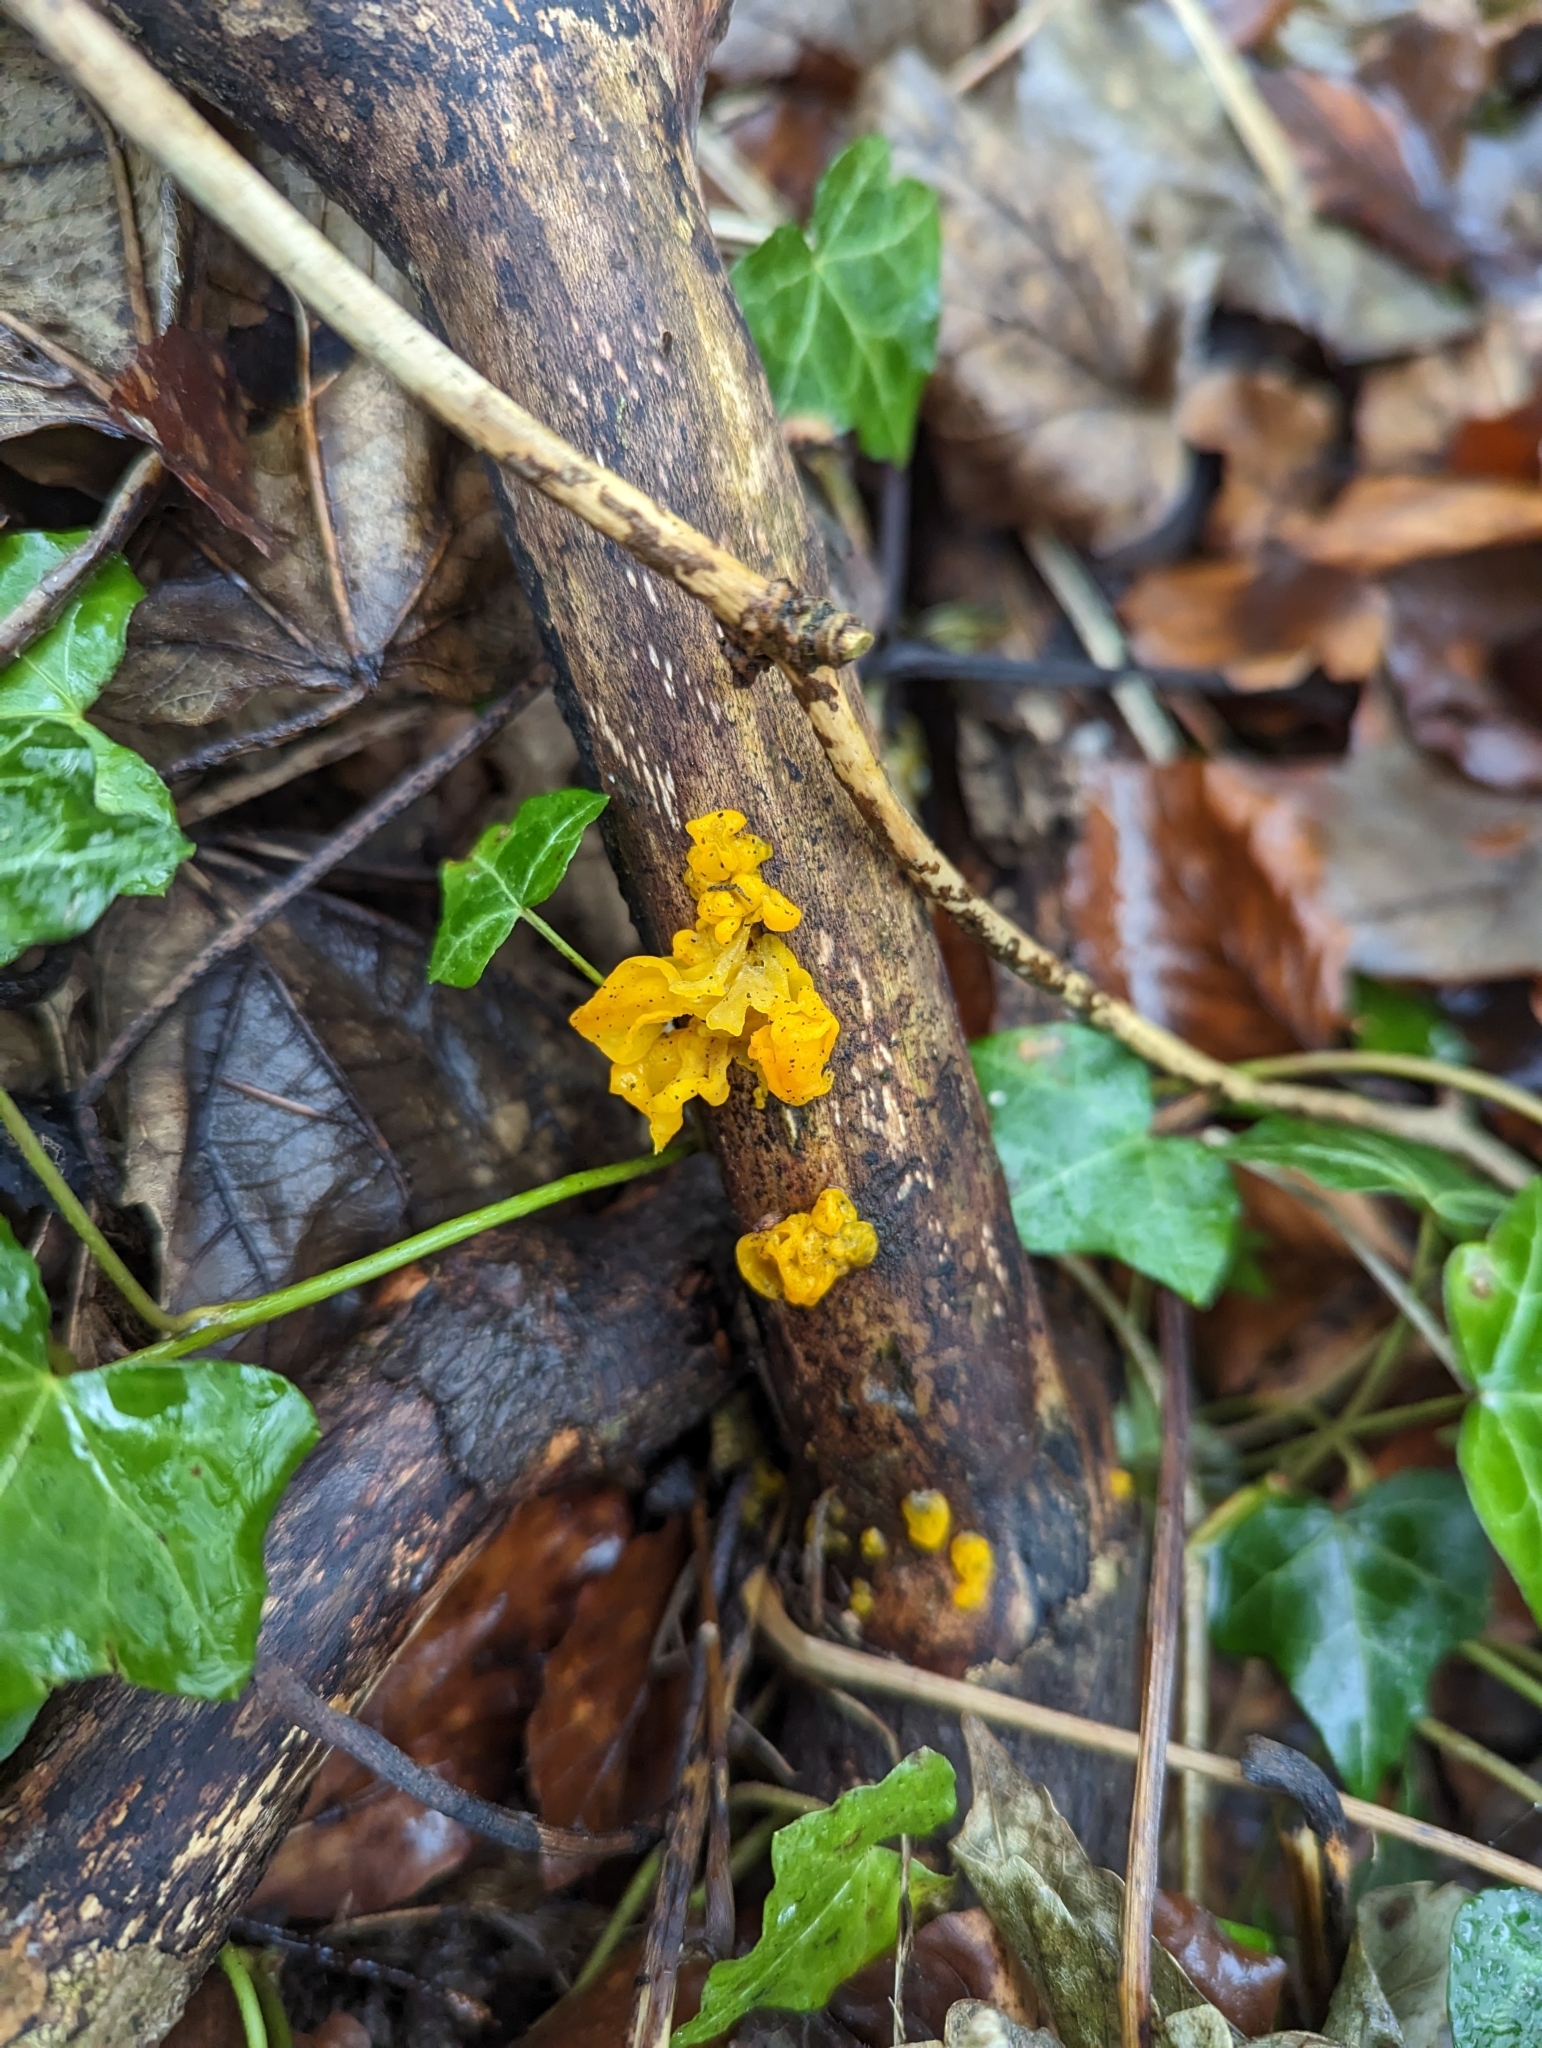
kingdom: Fungi
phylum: Basidiomycota
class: Tremellomycetes
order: Tremellales
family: Tremellaceae
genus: Tremella
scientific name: Tremella mesenterica
